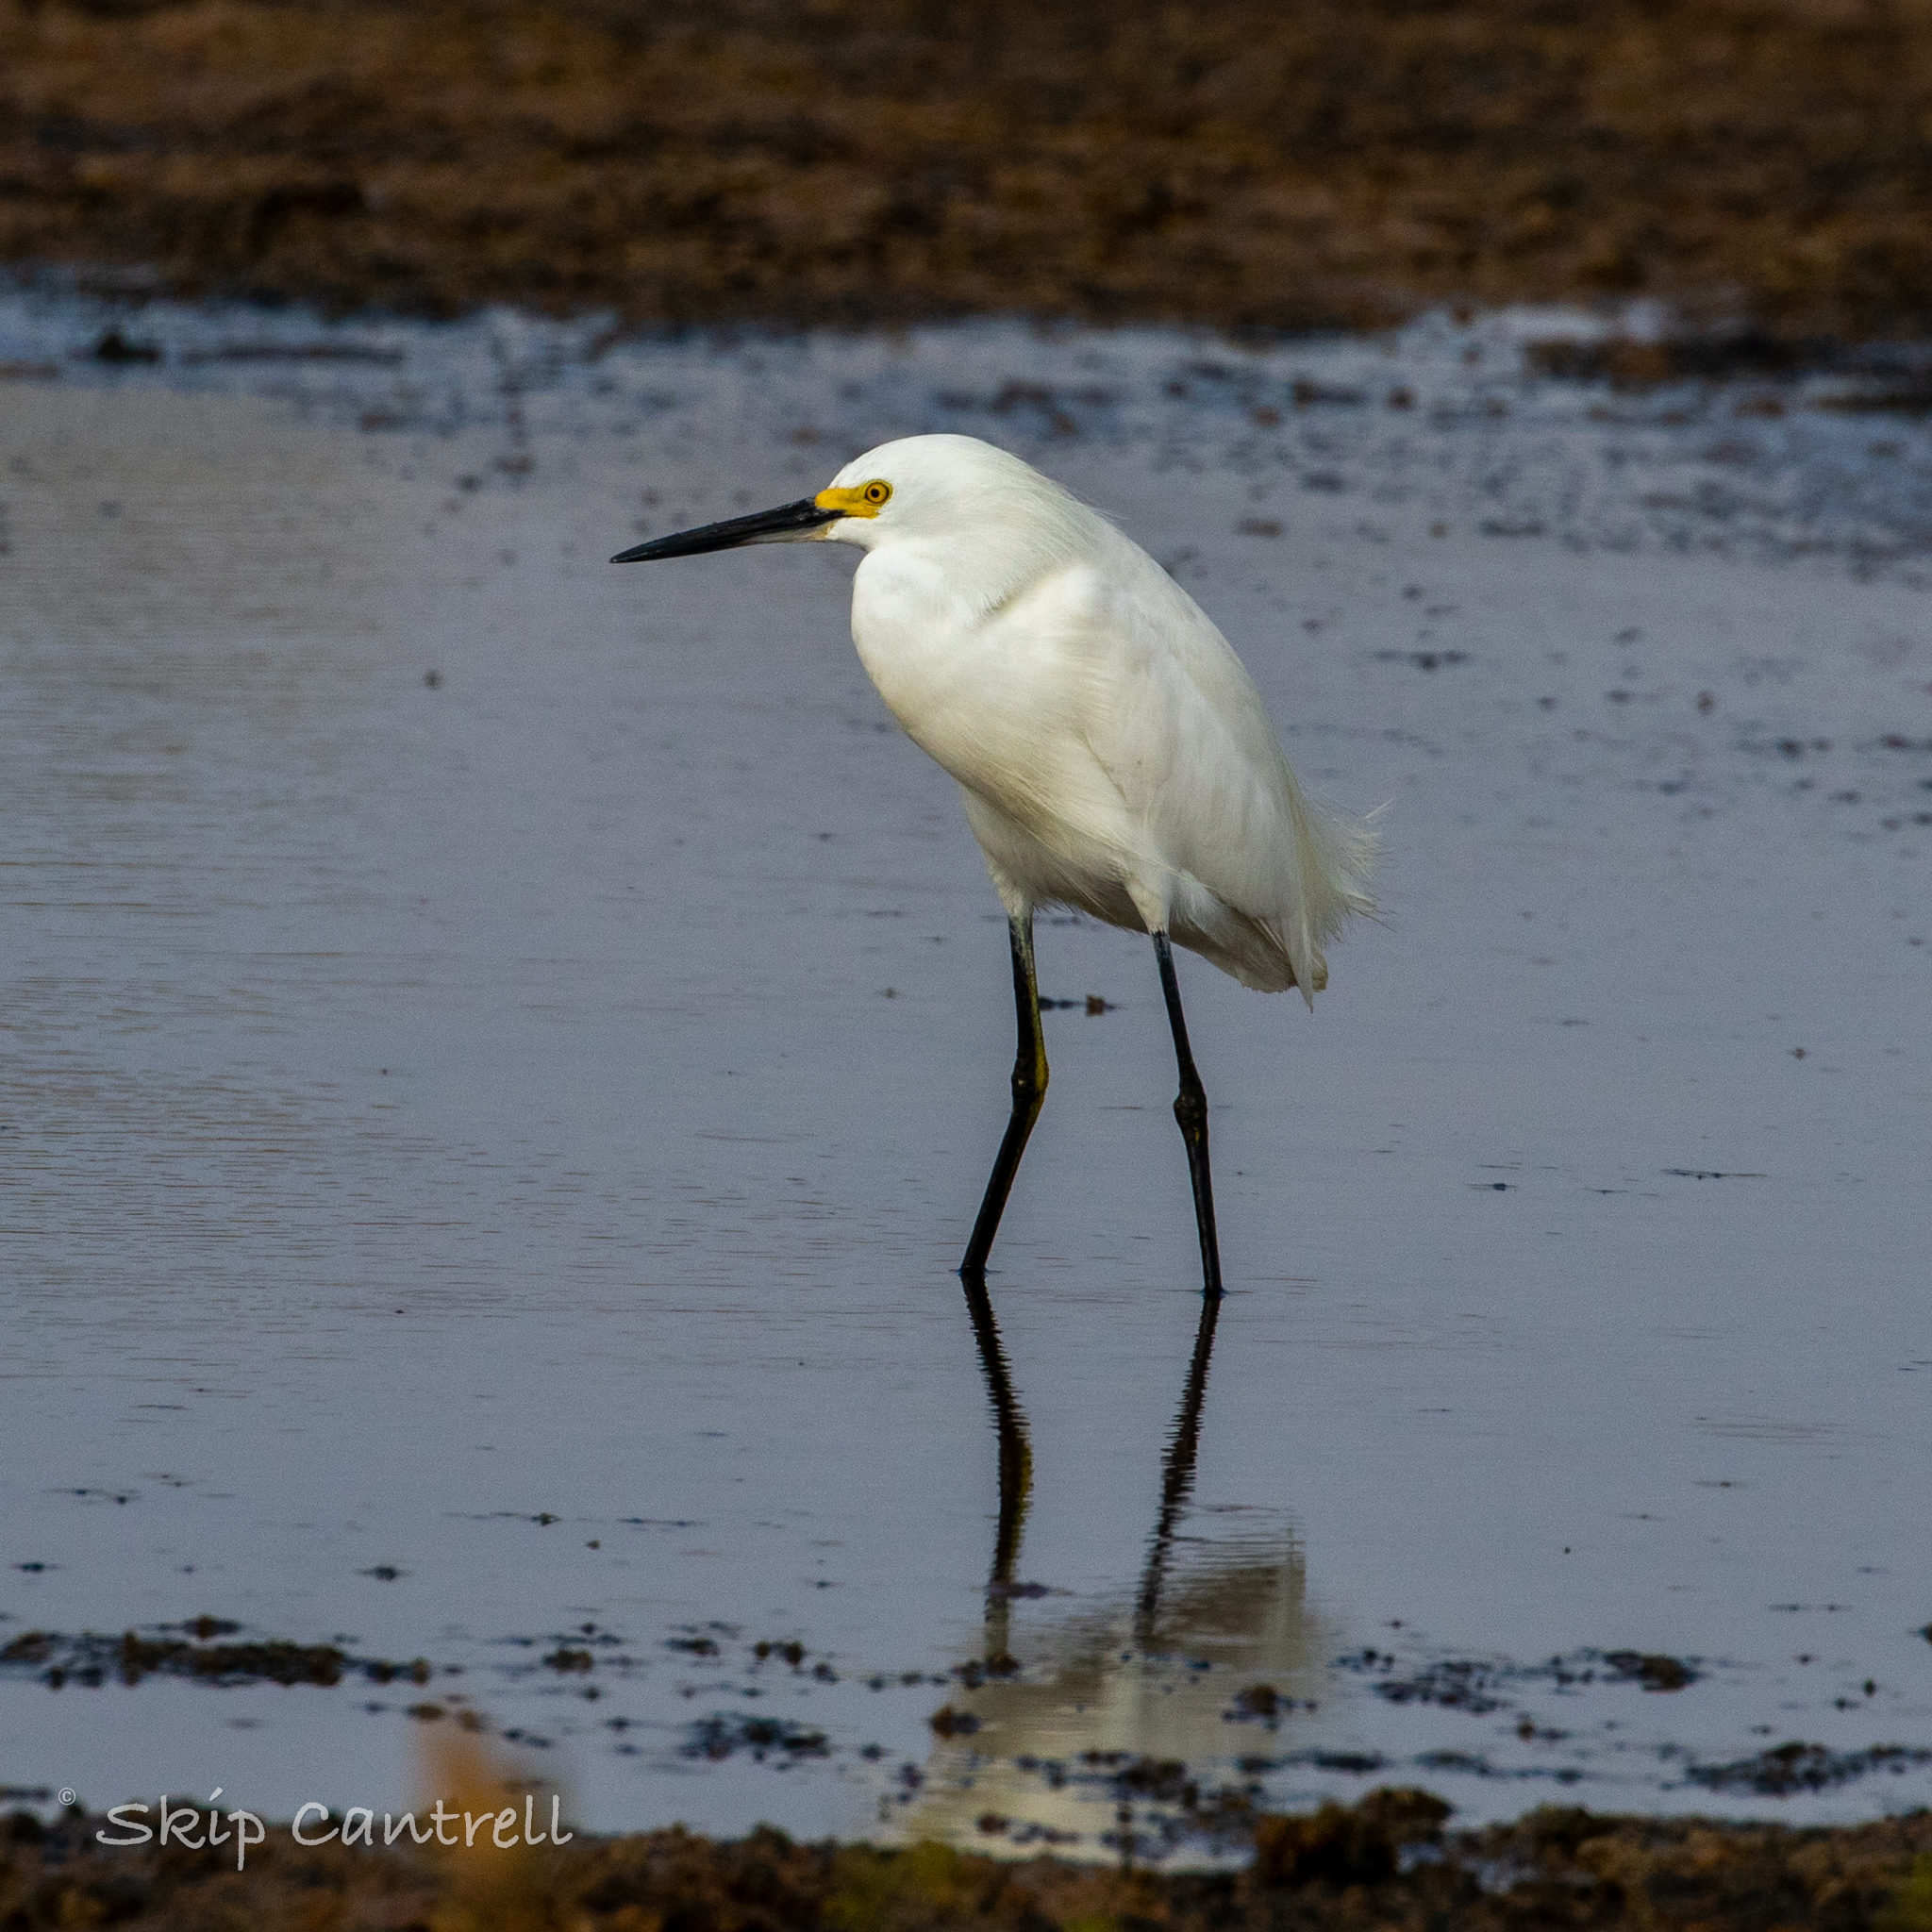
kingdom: Animalia
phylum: Chordata
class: Aves
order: Pelecaniformes
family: Ardeidae
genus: Egretta
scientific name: Egretta thula
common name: Snowy egret
